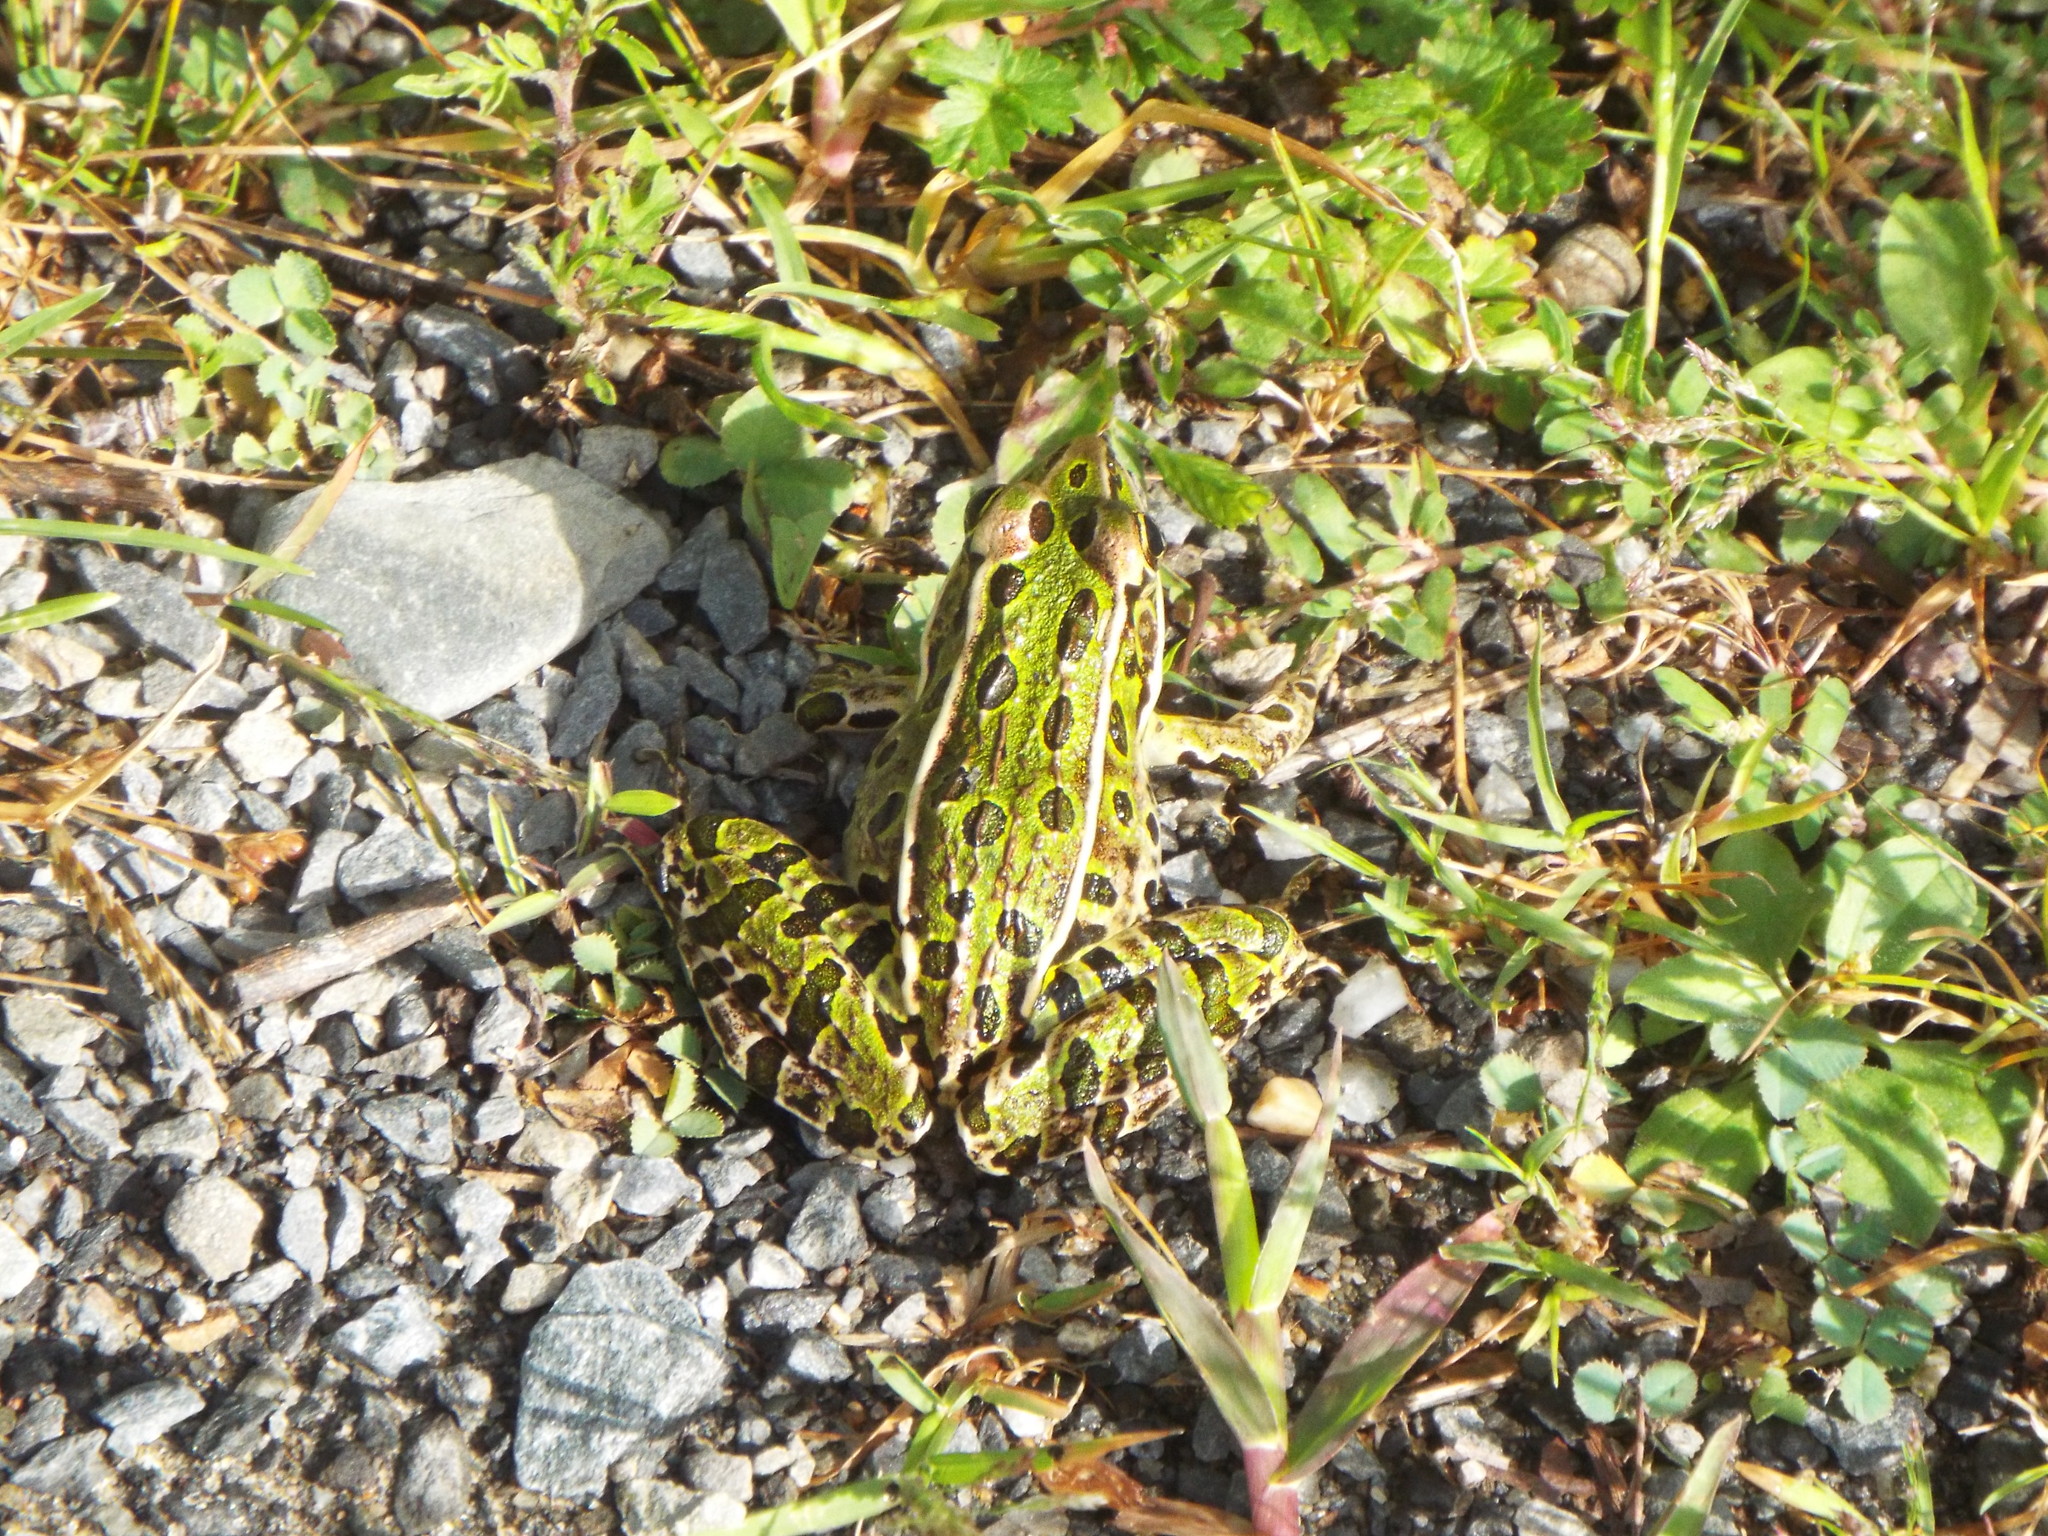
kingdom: Animalia
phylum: Chordata
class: Amphibia
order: Anura
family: Ranidae
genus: Lithobates
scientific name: Lithobates pipiens
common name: Northern leopard frog
